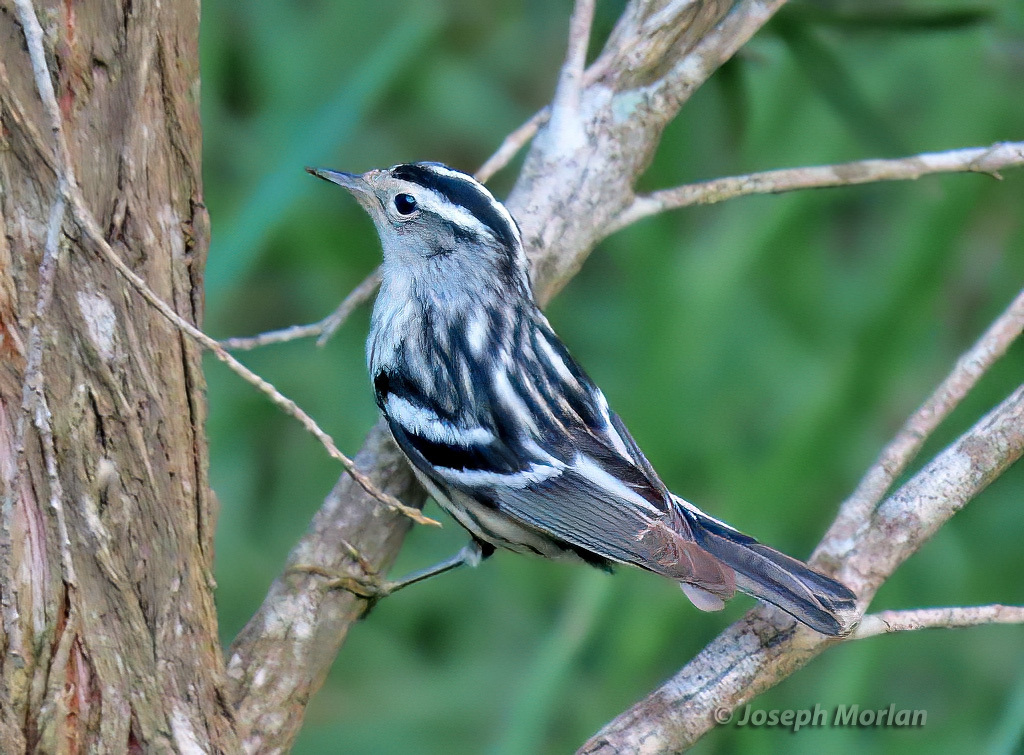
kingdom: Animalia
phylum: Chordata
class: Aves
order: Passeriformes
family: Parulidae
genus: Mniotilta
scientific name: Mniotilta varia
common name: Black-and-white warbler
